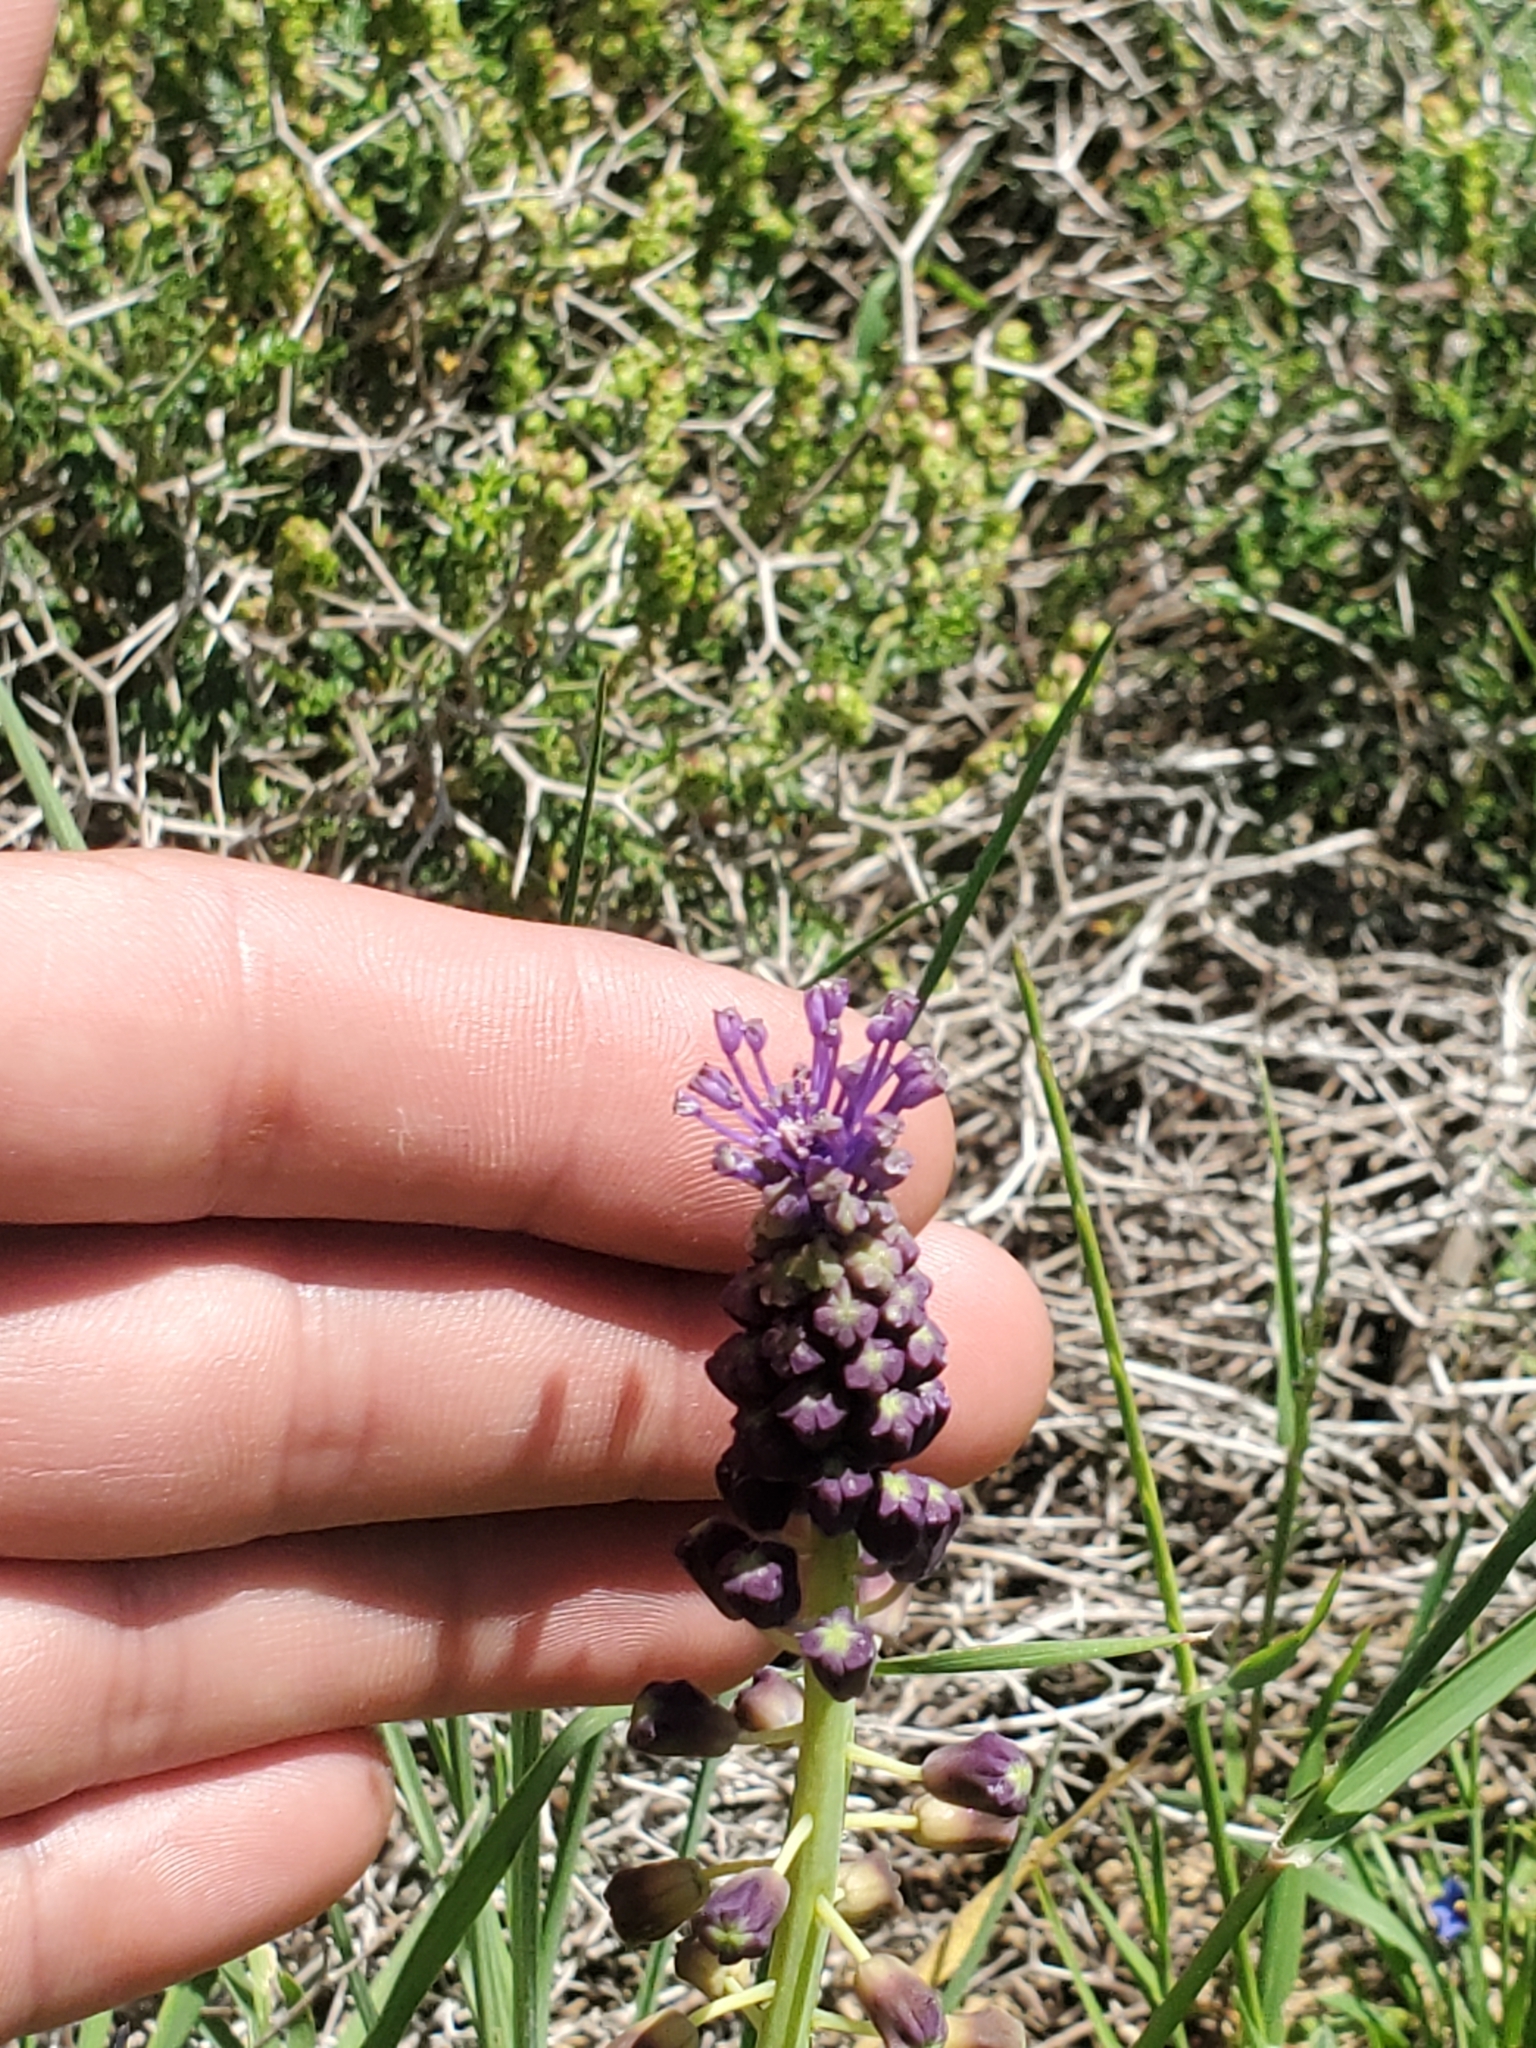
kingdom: Plantae
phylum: Tracheophyta
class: Liliopsida
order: Asparagales
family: Asparagaceae
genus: Muscari
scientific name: Muscari comosum
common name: Tassel hyacinth
